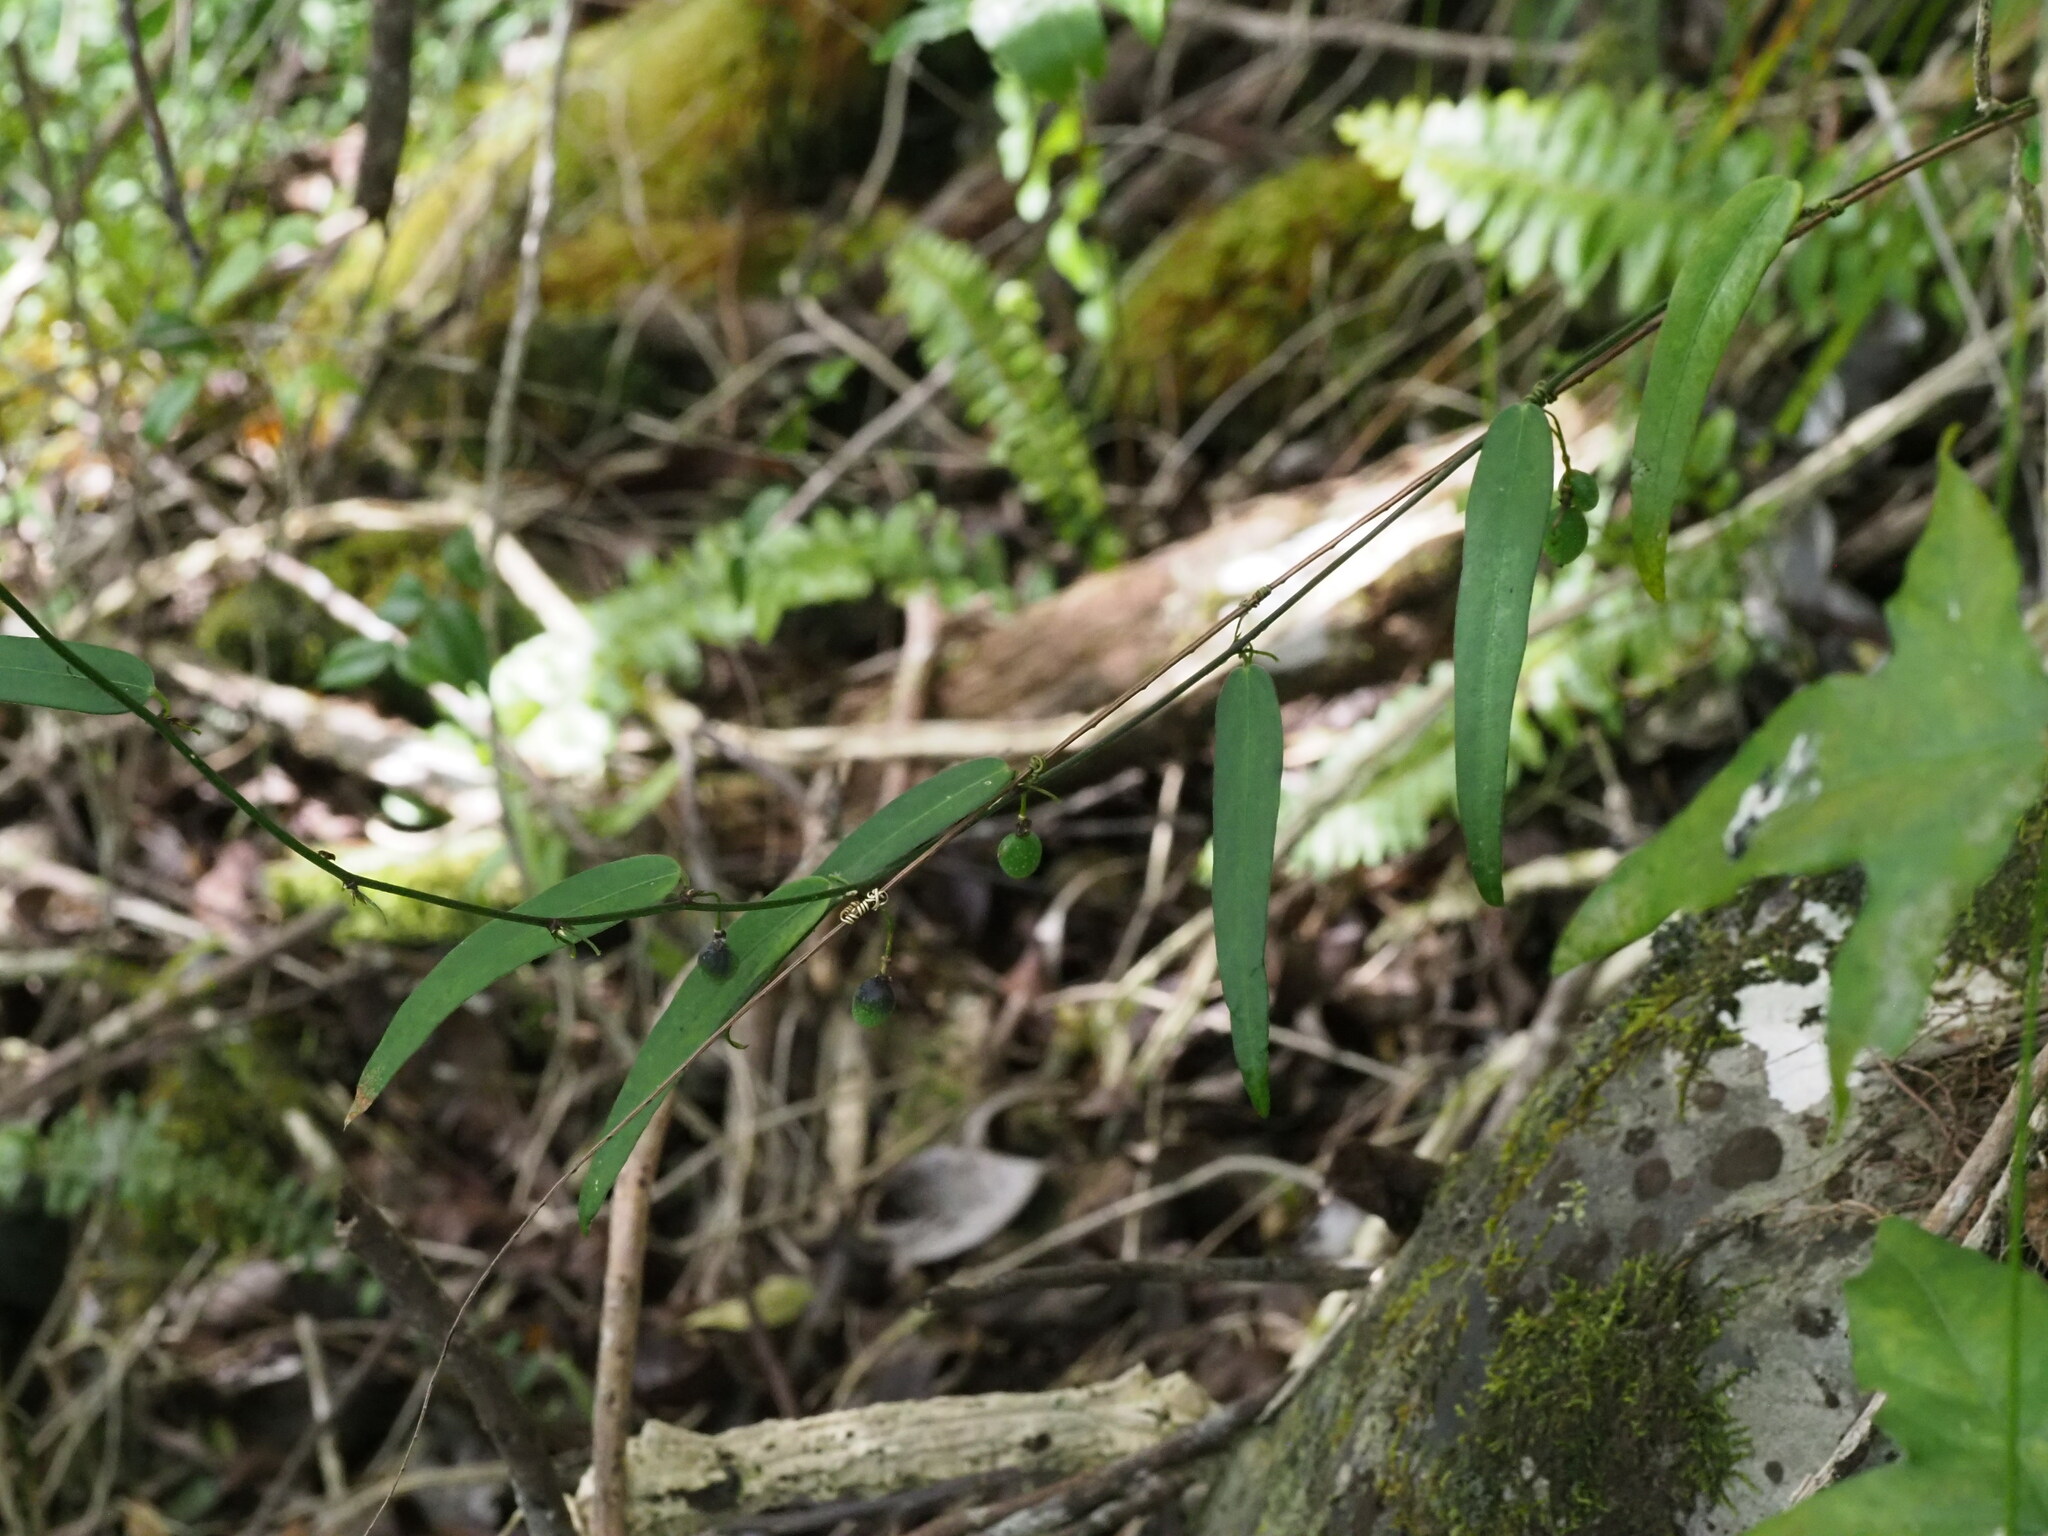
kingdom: Plantae
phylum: Tracheophyta
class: Magnoliopsida
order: Malpighiales
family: Passifloraceae
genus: Passiflora
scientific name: Passiflora suberosa
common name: Wild passionfruit
